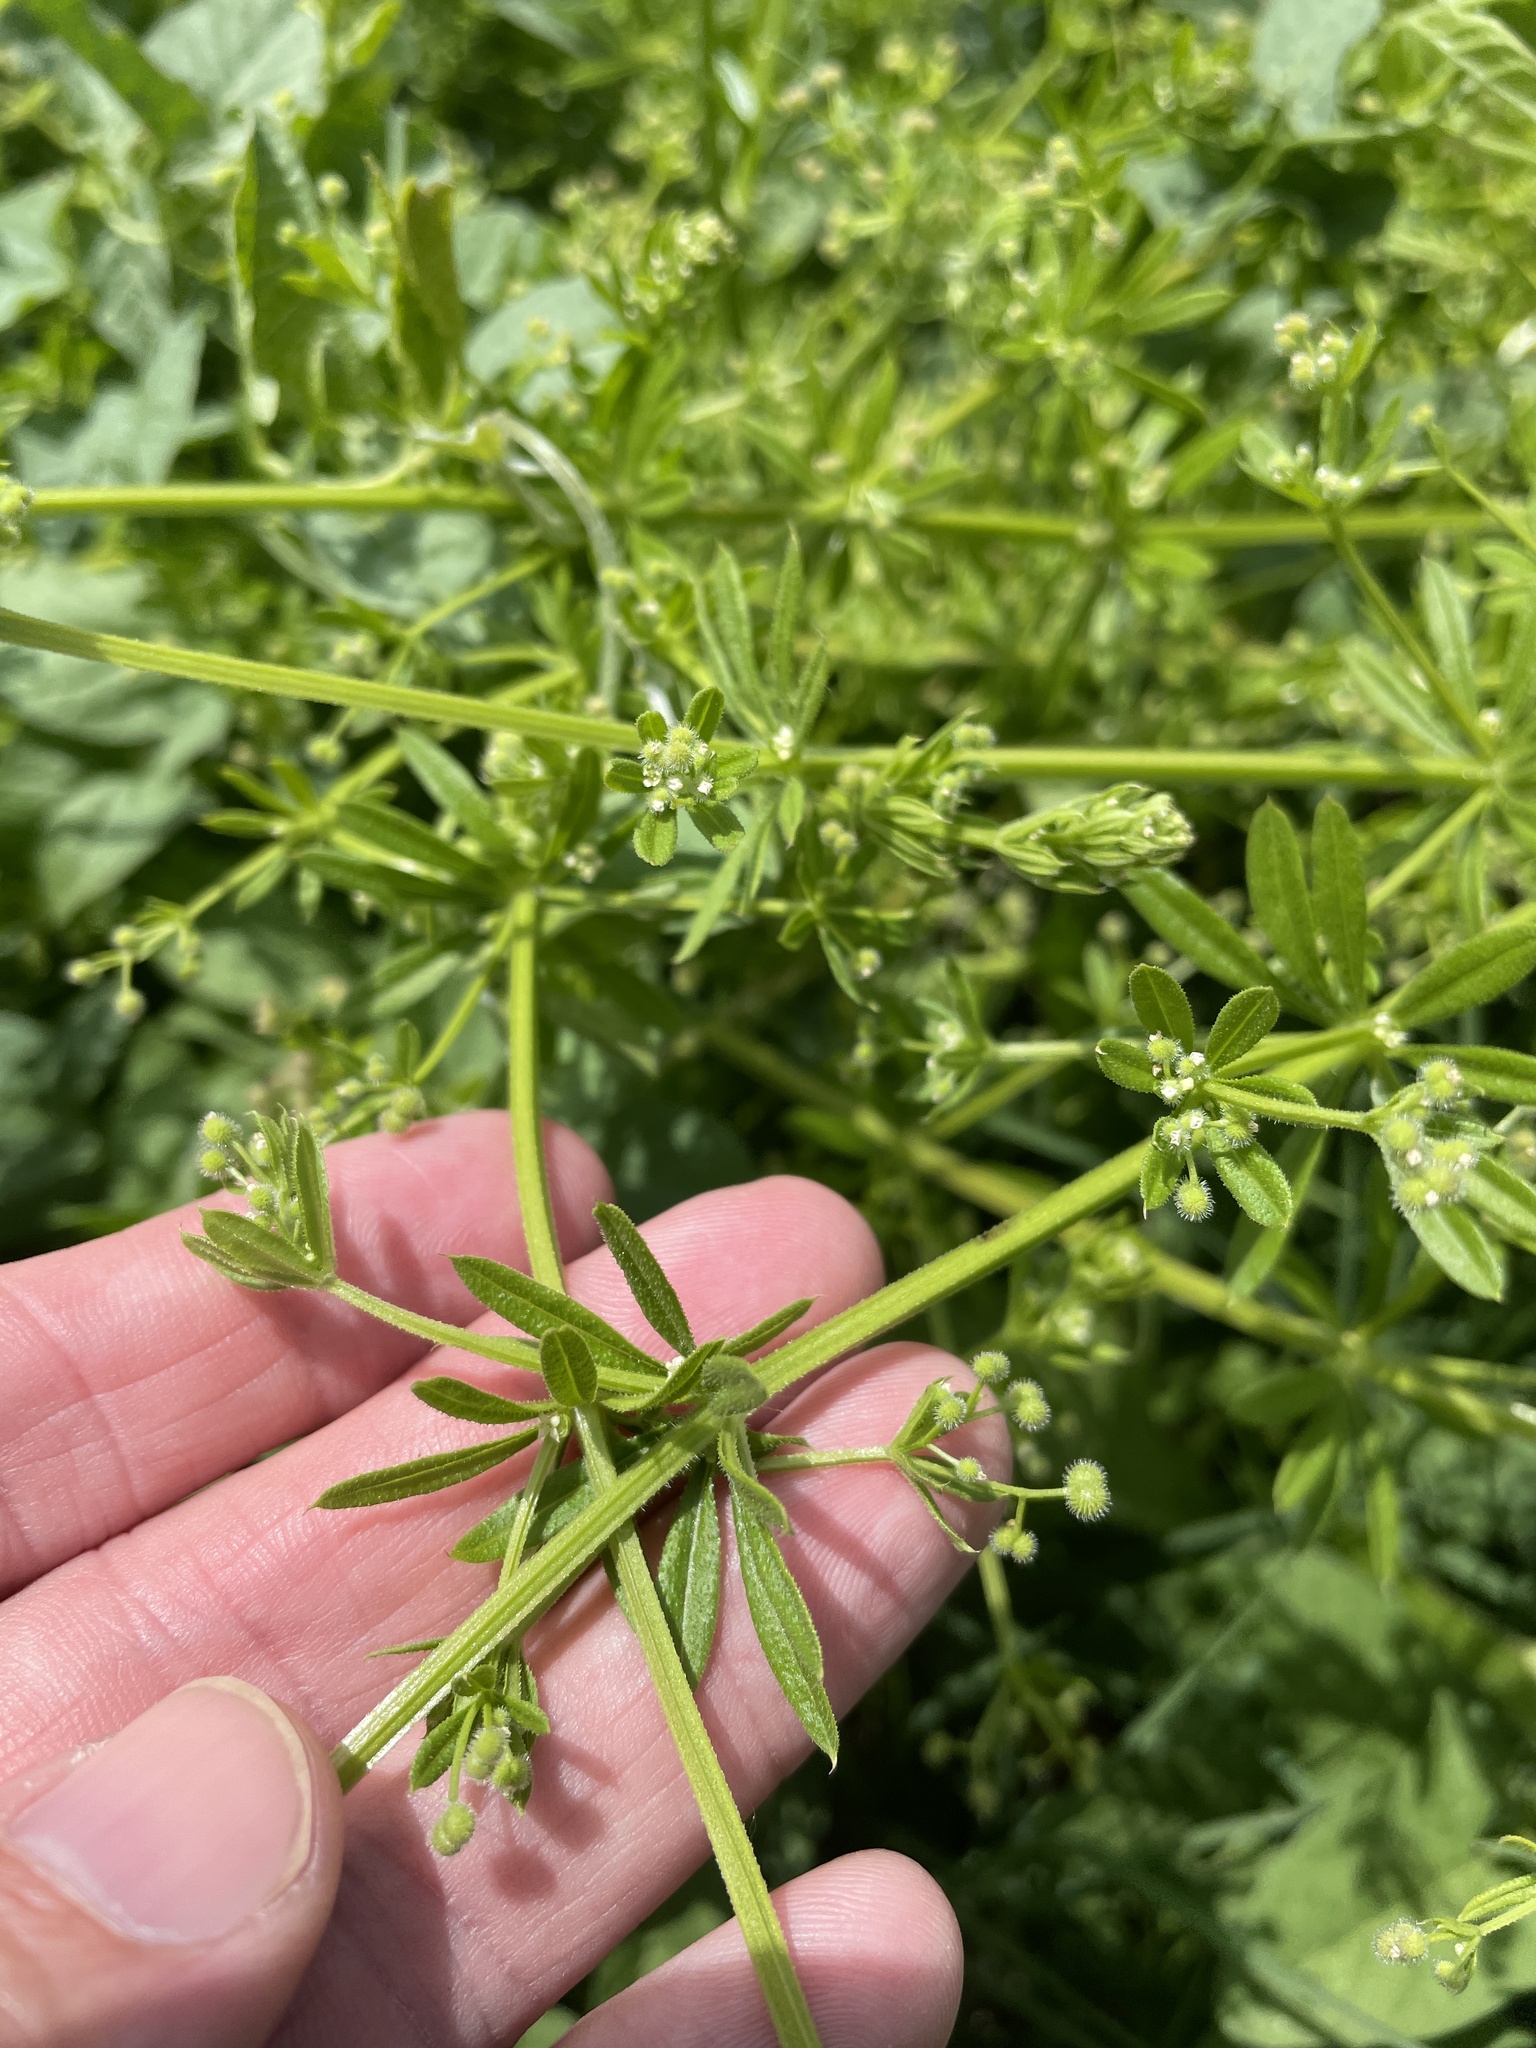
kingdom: Plantae
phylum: Tracheophyta
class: Magnoliopsida
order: Gentianales
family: Rubiaceae
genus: Galium
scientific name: Galium aparine
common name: Cleavers
